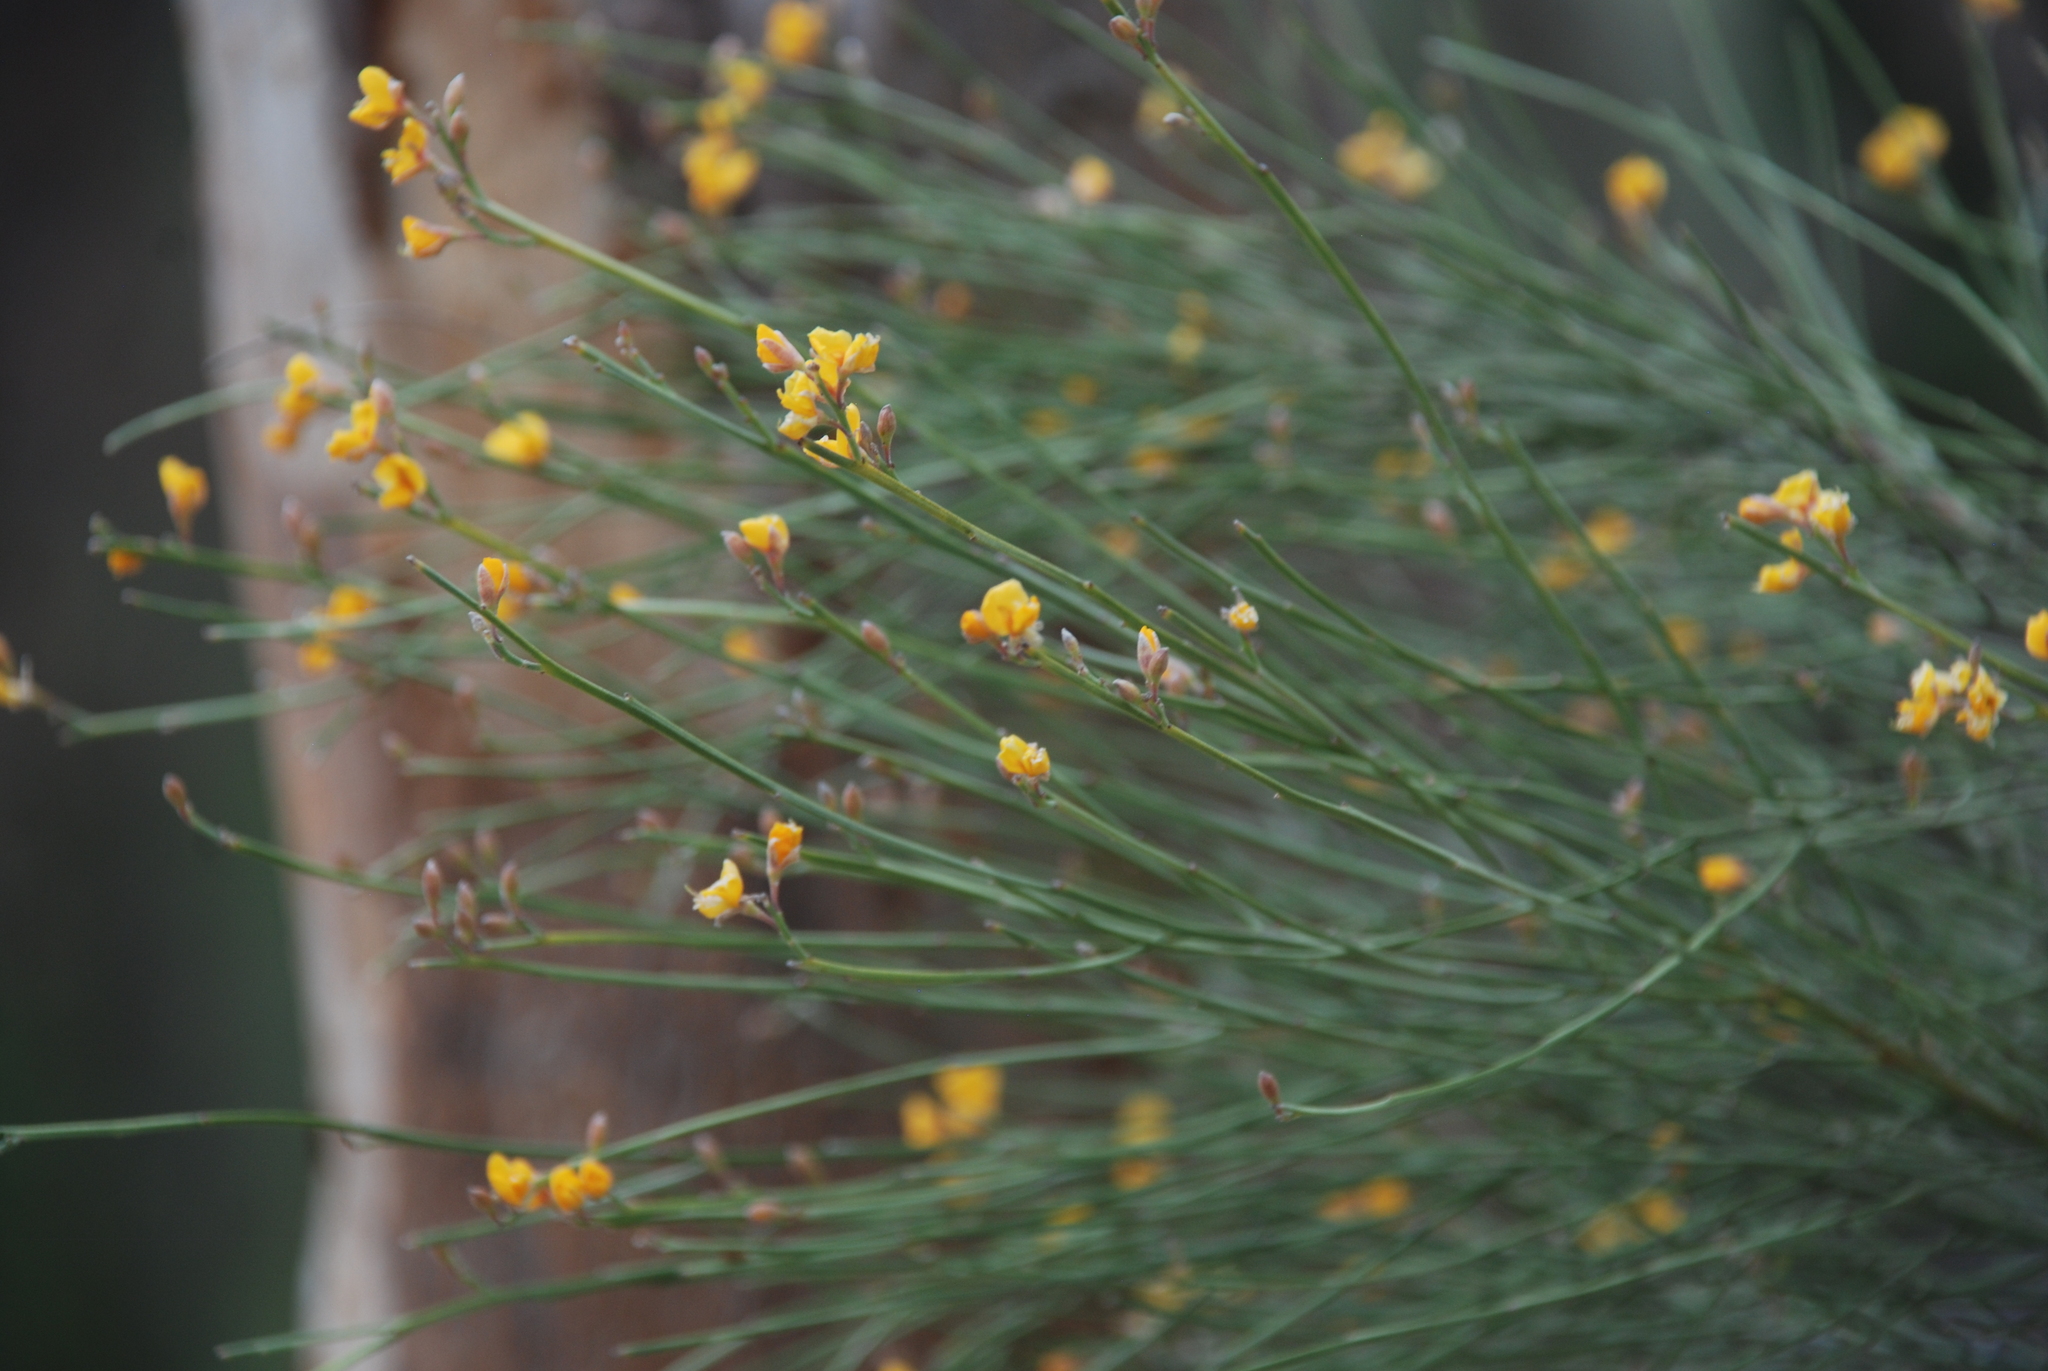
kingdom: Plantae
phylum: Tracheophyta
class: Magnoliopsida
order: Fabales
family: Fabaceae
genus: Jacksonia
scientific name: Jacksonia scoparia
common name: Dogwood
